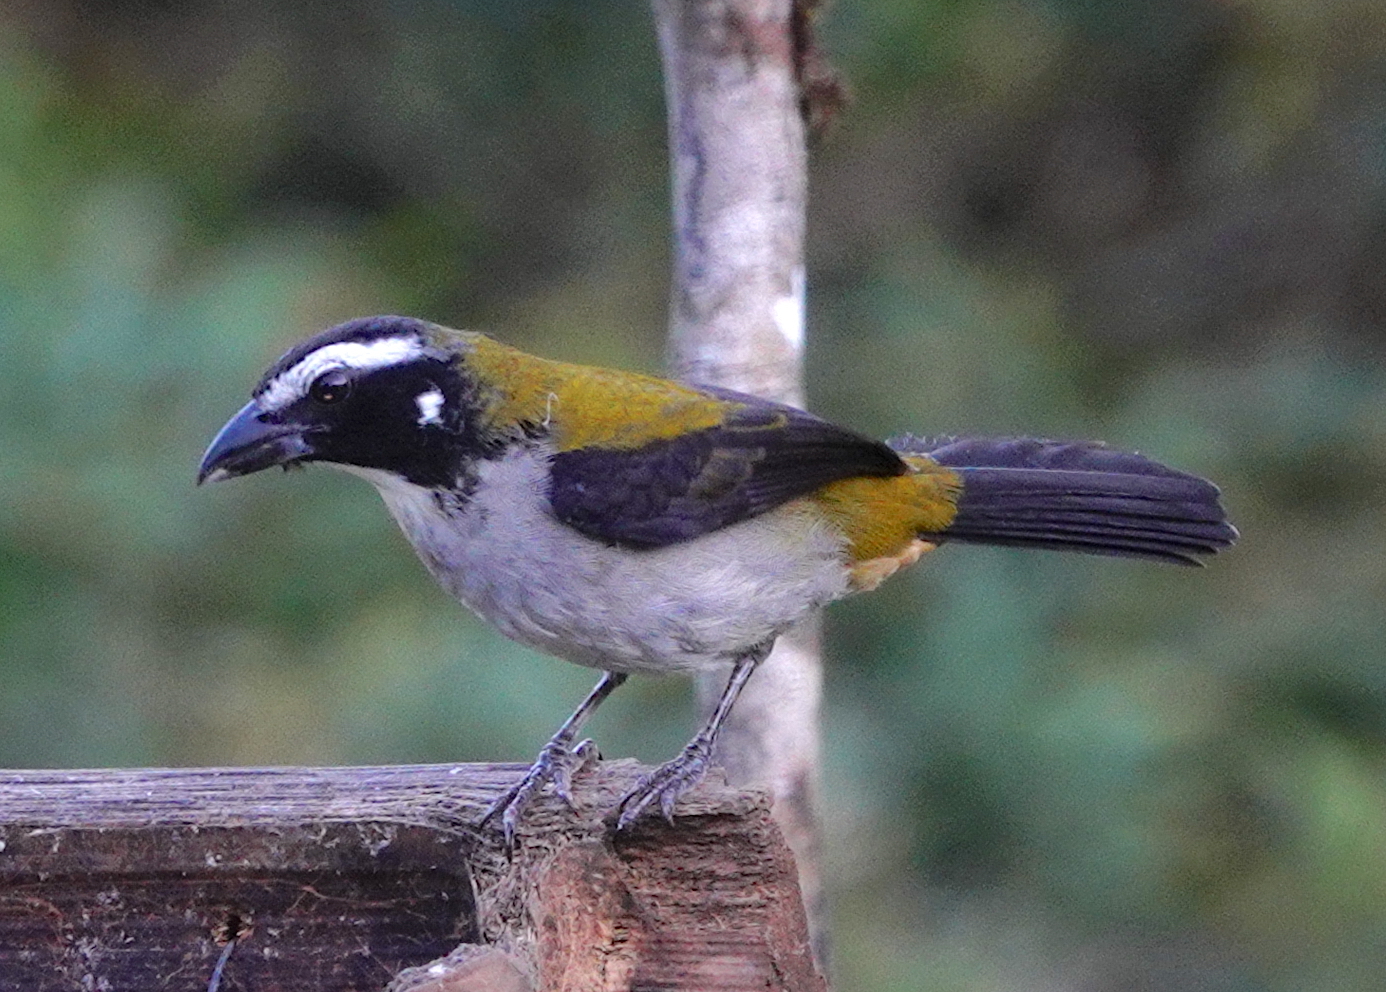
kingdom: Animalia
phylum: Chordata
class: Aves
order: Passeriformes
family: Thraupidae
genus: Saltator
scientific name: Saltator atripennis
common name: Black-winged saltator
